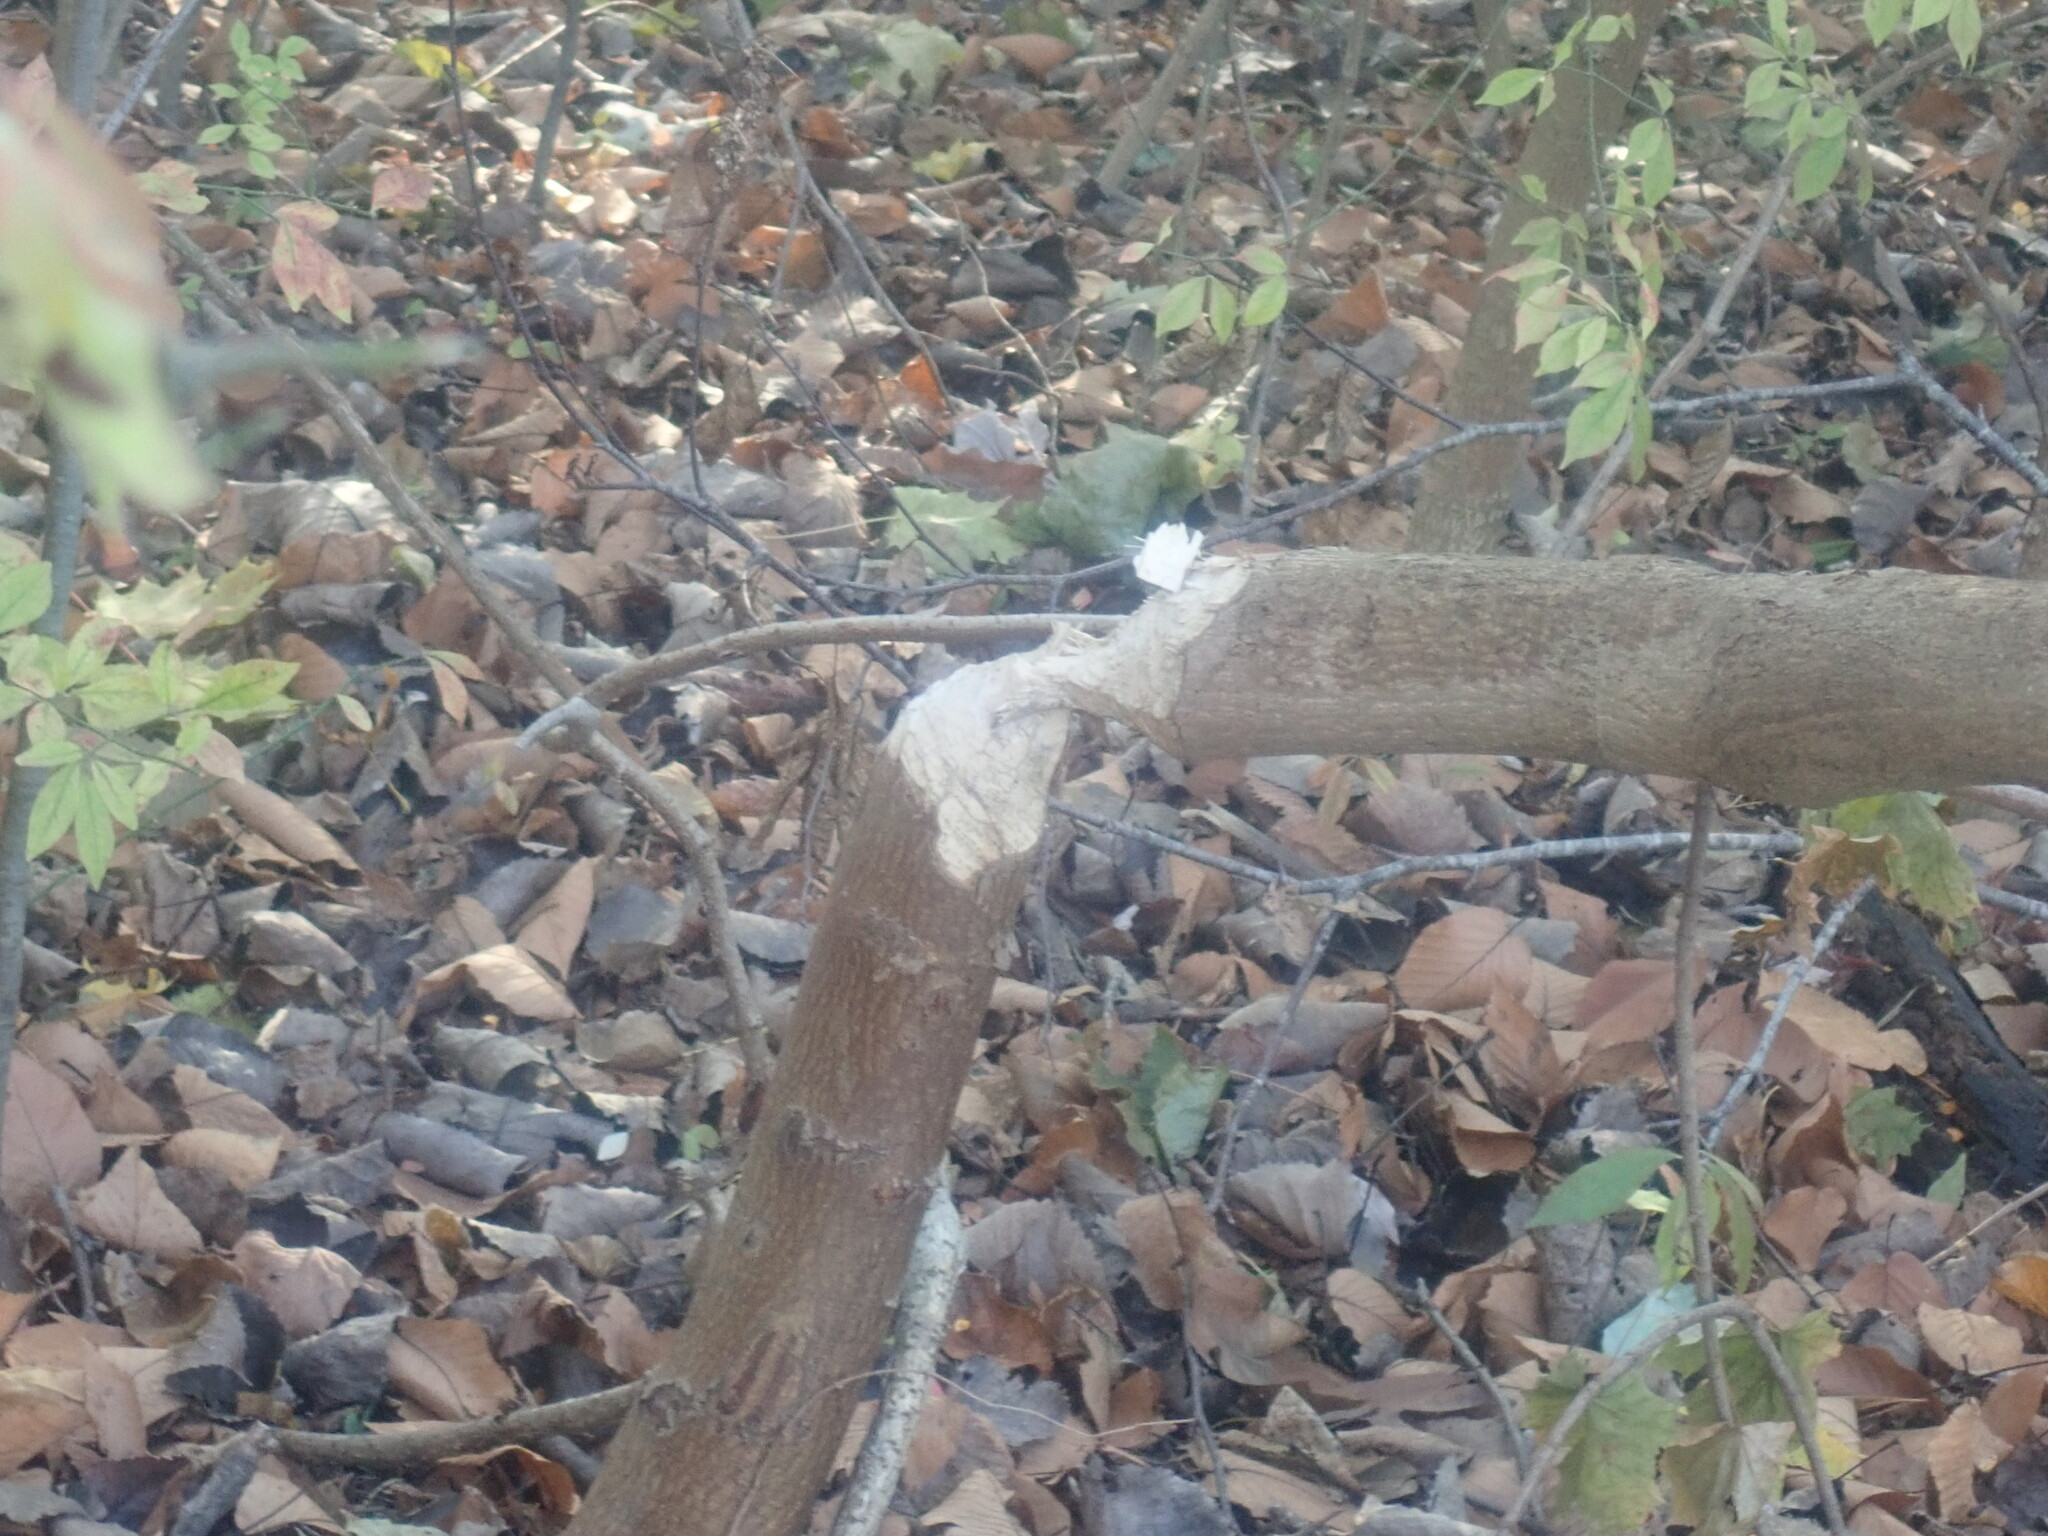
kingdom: Animalia
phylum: Chordata
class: Mammalia
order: Rodentia
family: Castoridae
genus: Castor
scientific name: Castor canadensis
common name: American beaver
